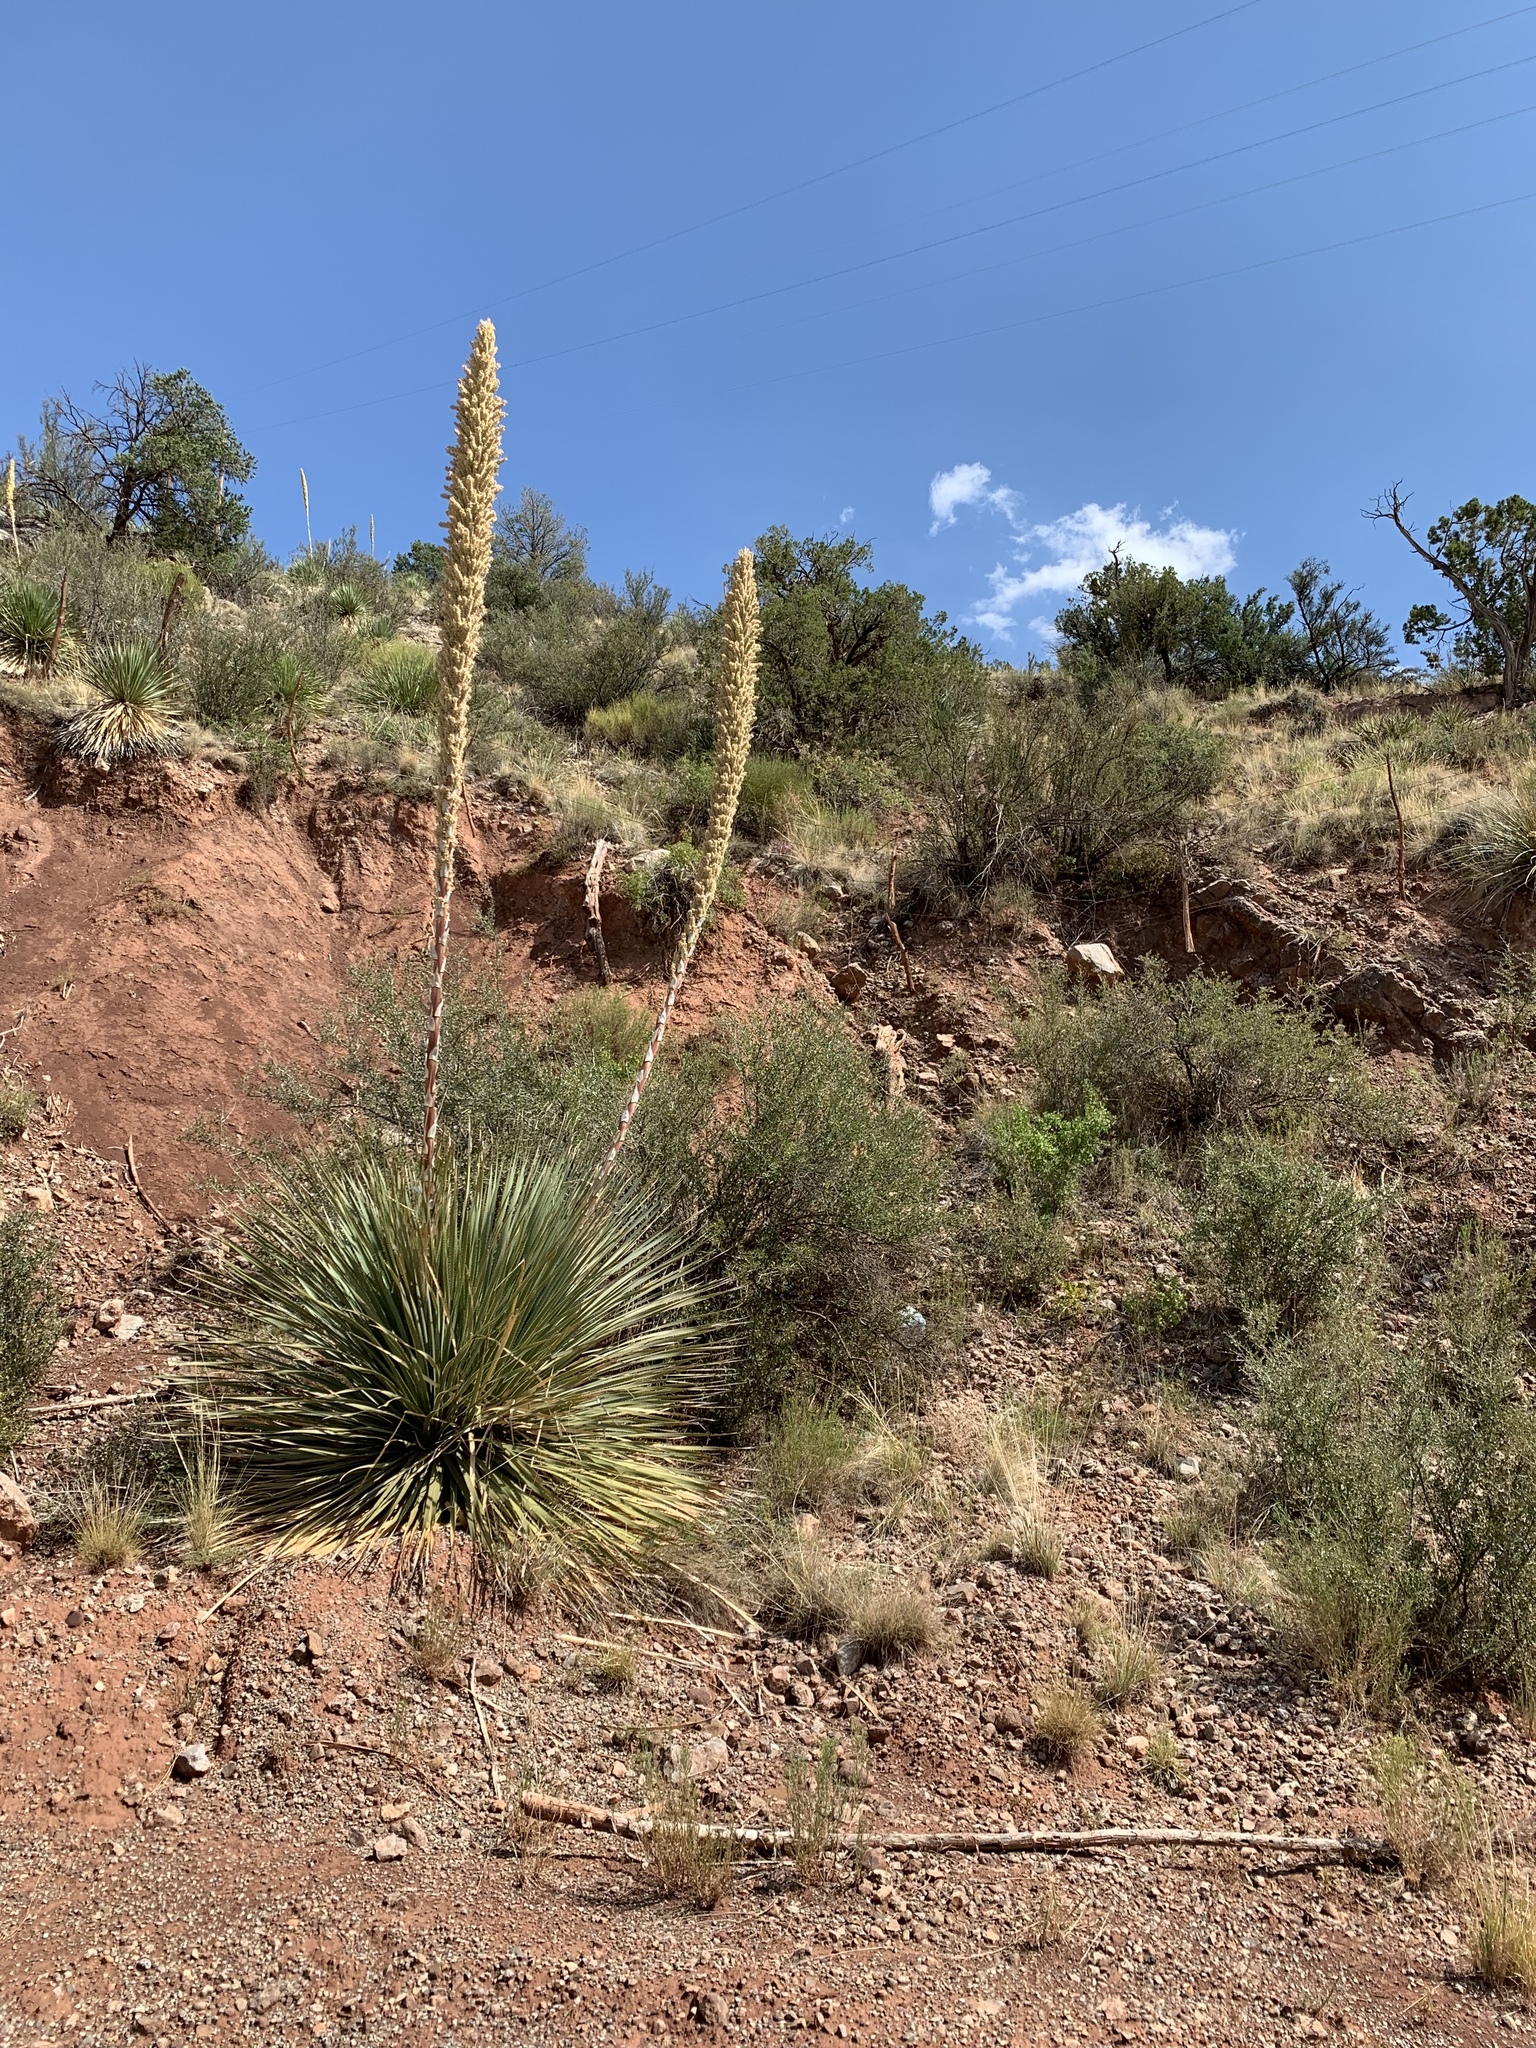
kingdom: Plantae
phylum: Tracheophyta
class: Liliopsida
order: Asparagales
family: Asparagaceae
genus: Dasylirion
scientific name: Dasylirion wheeleri
